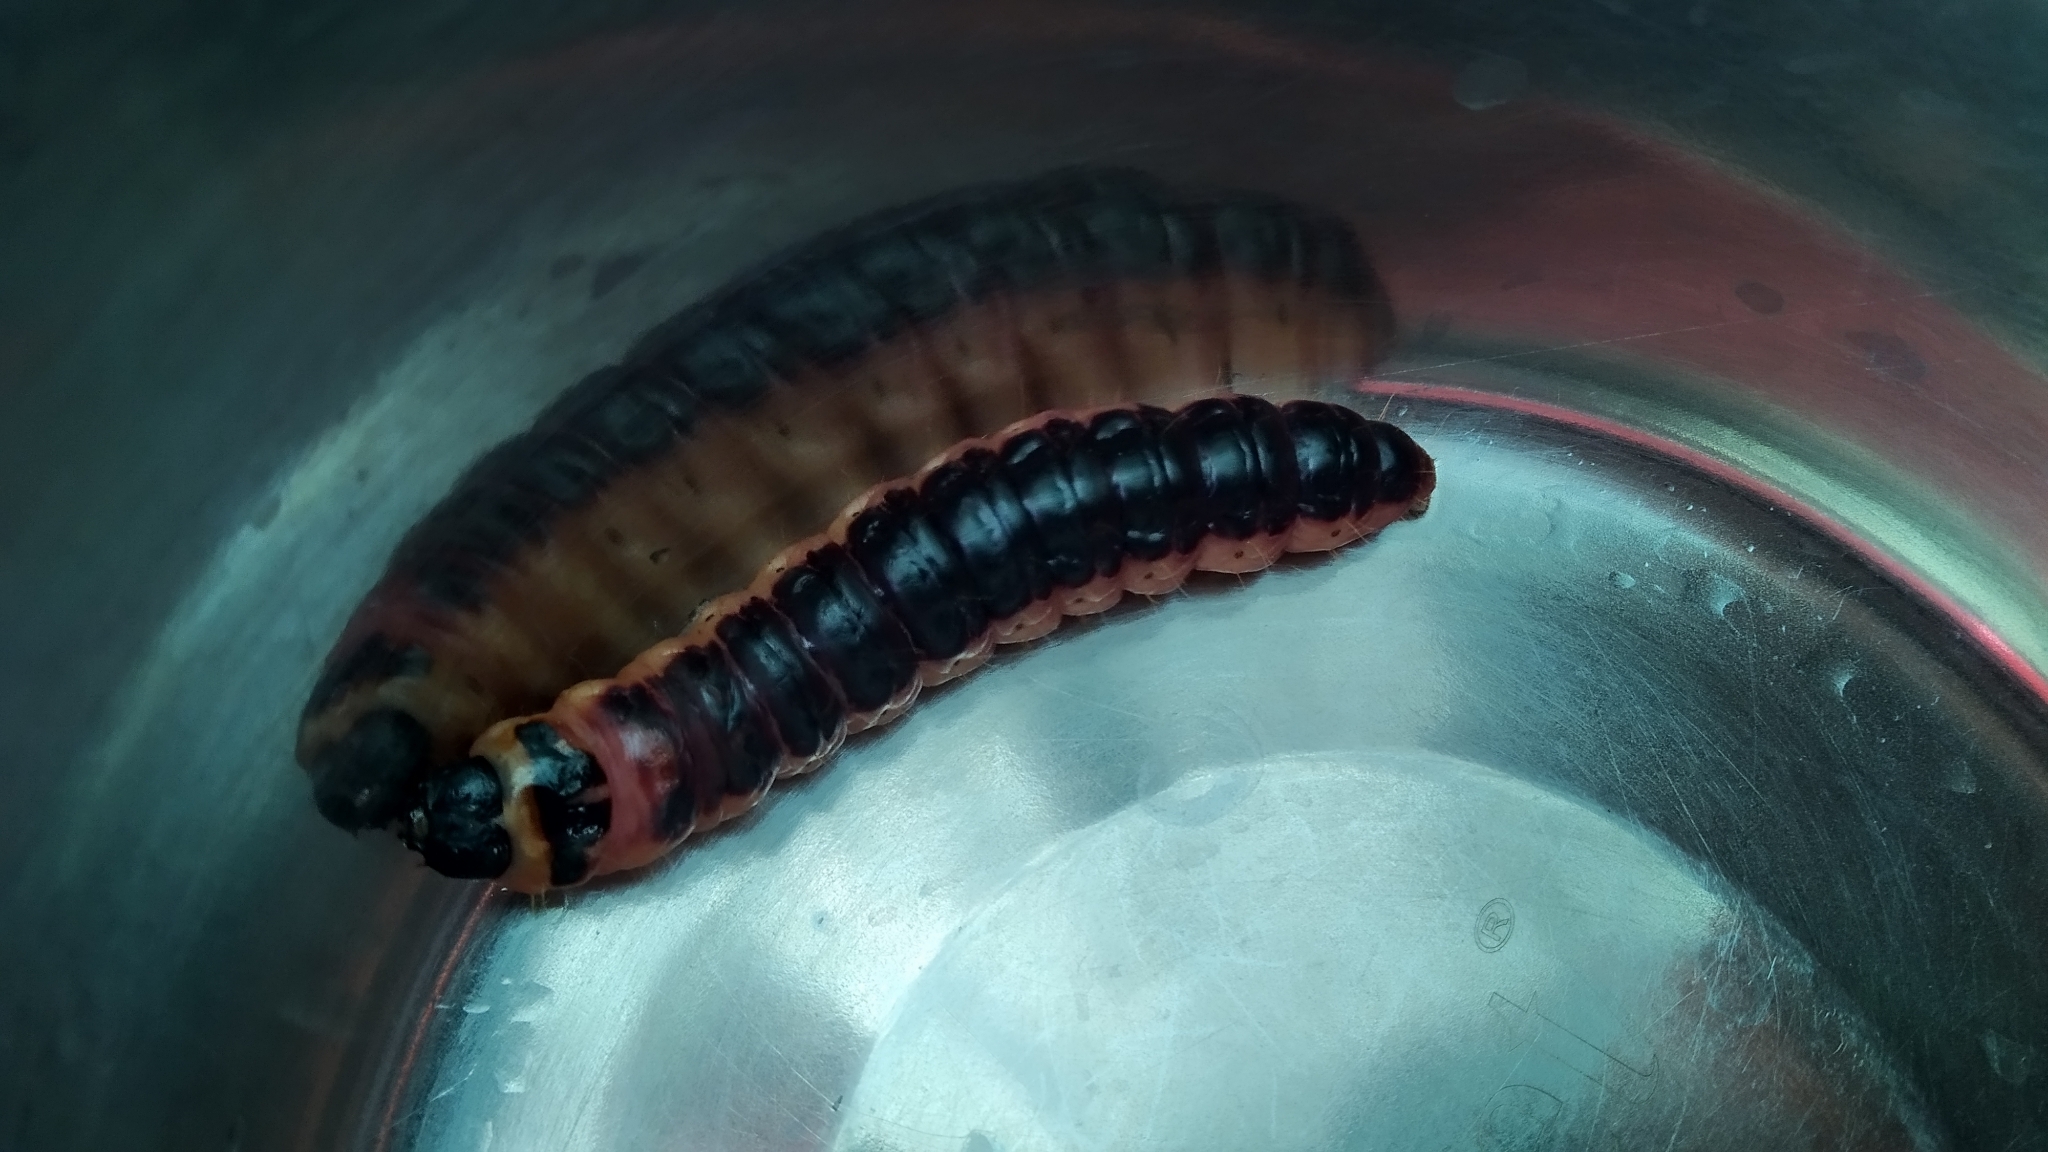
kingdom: Animalia
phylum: Arthropoda
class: Insecta
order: Lepidoptera
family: Cossidae
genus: Cossus
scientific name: Cossus cossus
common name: Goat moth
